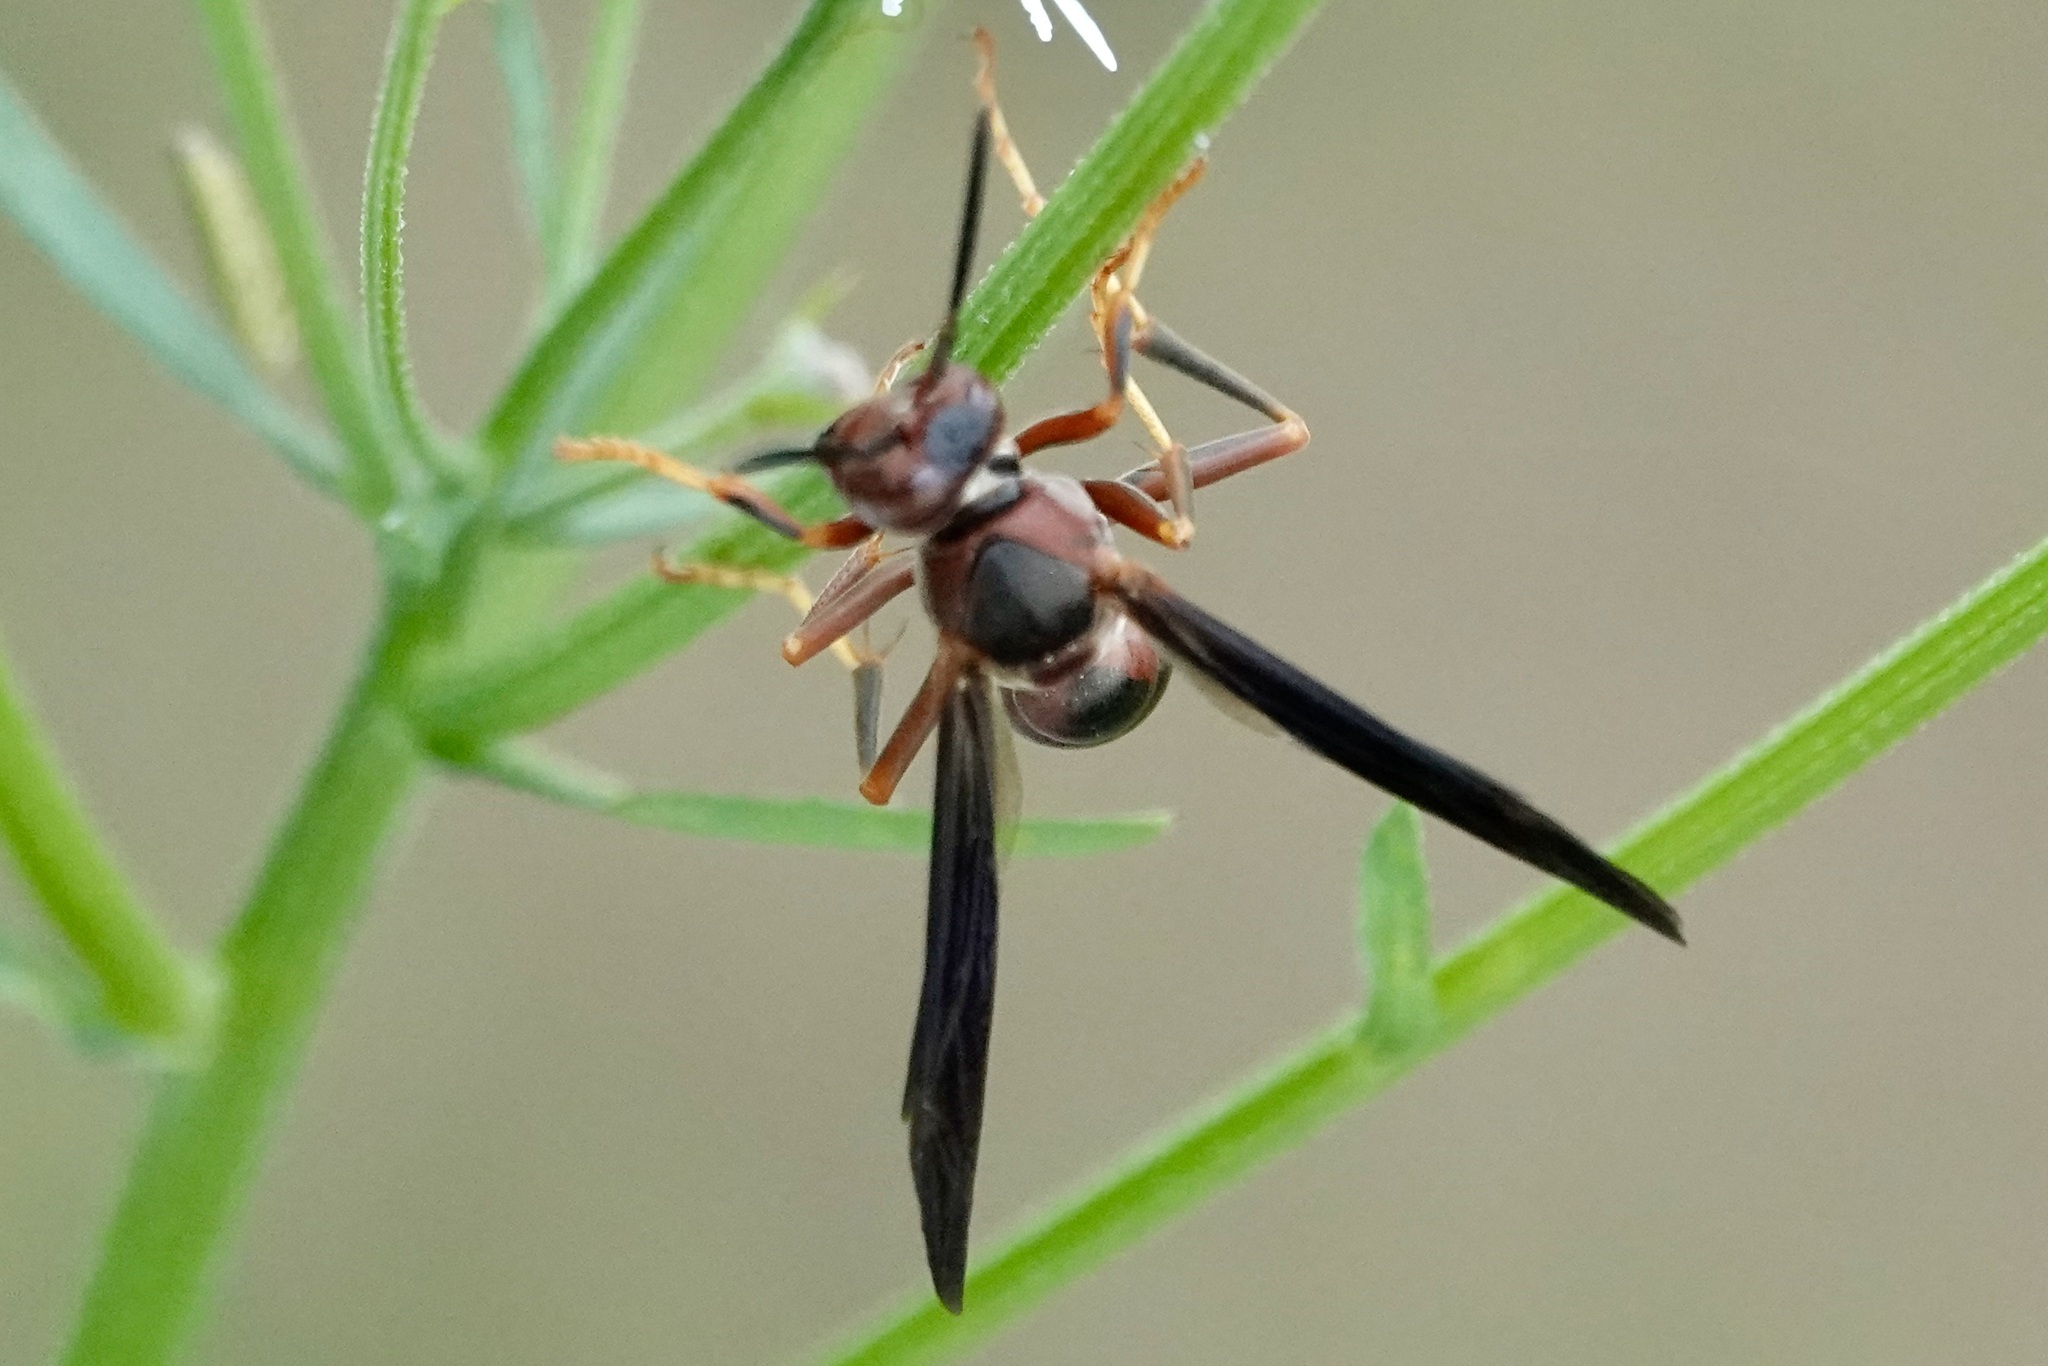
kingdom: Animalia
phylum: Arthropoda
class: Insecta
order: Hymenoptera
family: Eumenidae
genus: Polistes
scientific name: Polistes metricus
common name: Metric paper wasp
